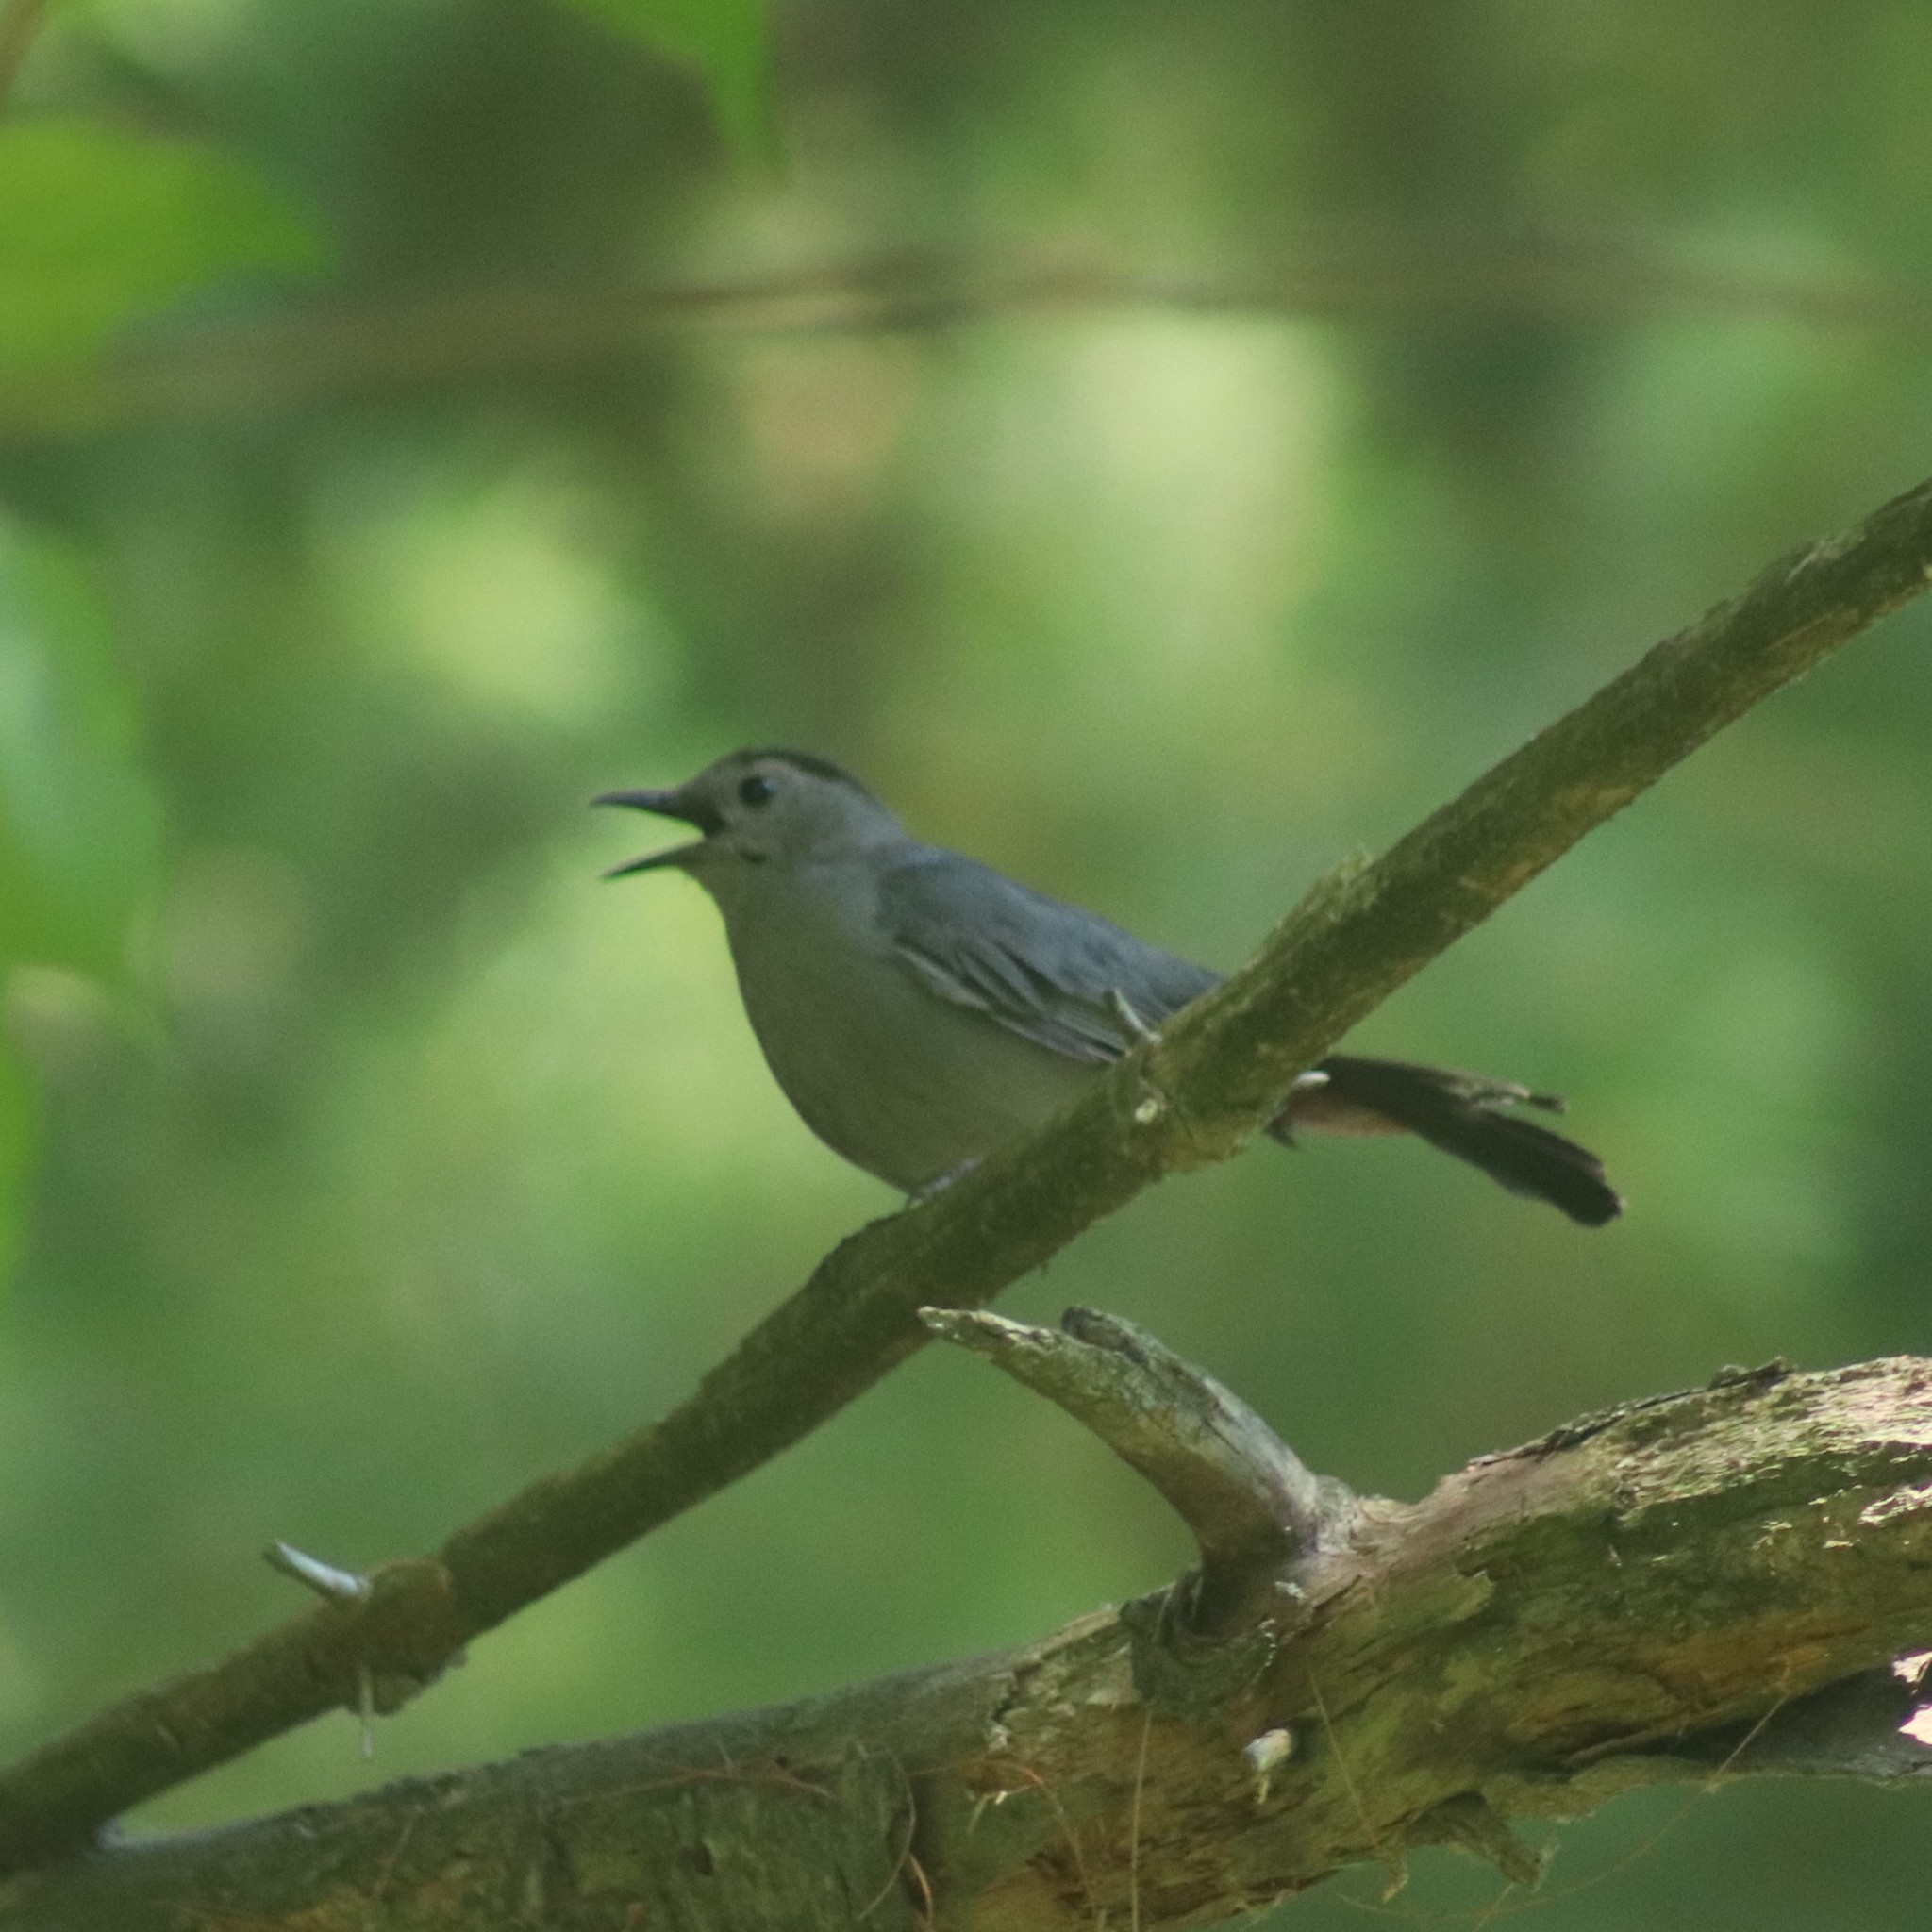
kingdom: Animalia
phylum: Chordata
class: Aves
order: Passeriformes
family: Mimidae
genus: Dumetella
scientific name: Dumetella carolinensis
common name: Gray catbird
